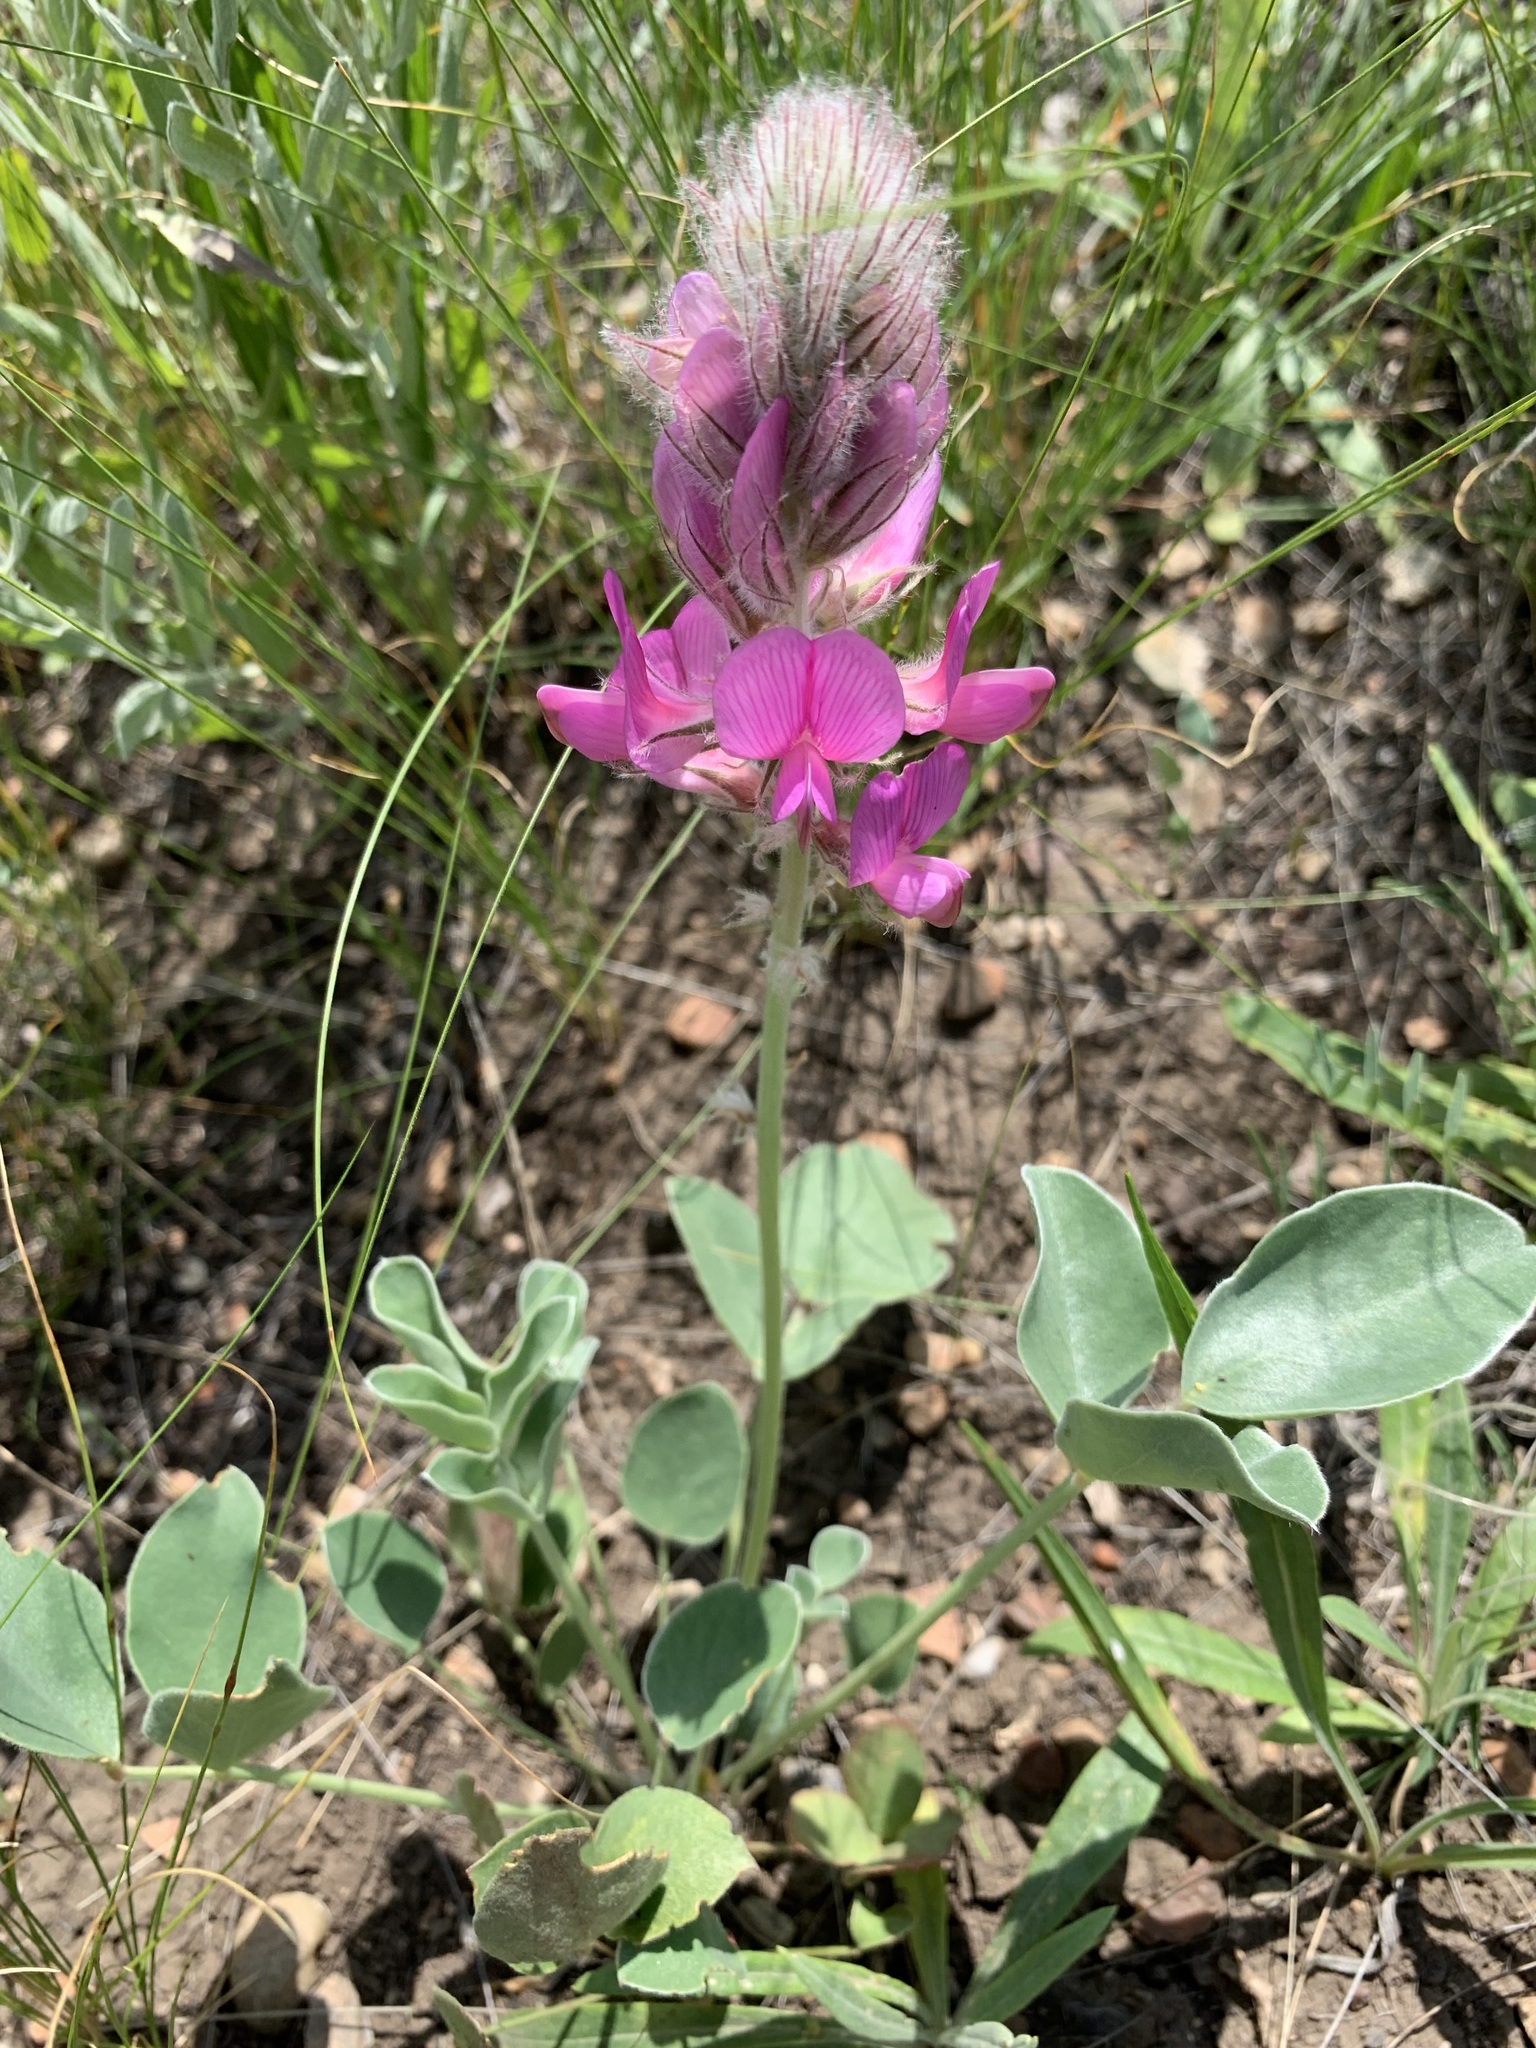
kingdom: Plantae
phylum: Tracheophyta
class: Magnoliopsida
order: Fabales
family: Fabaceae
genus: Hedysarum
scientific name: Hedysarum argyrophyllum
